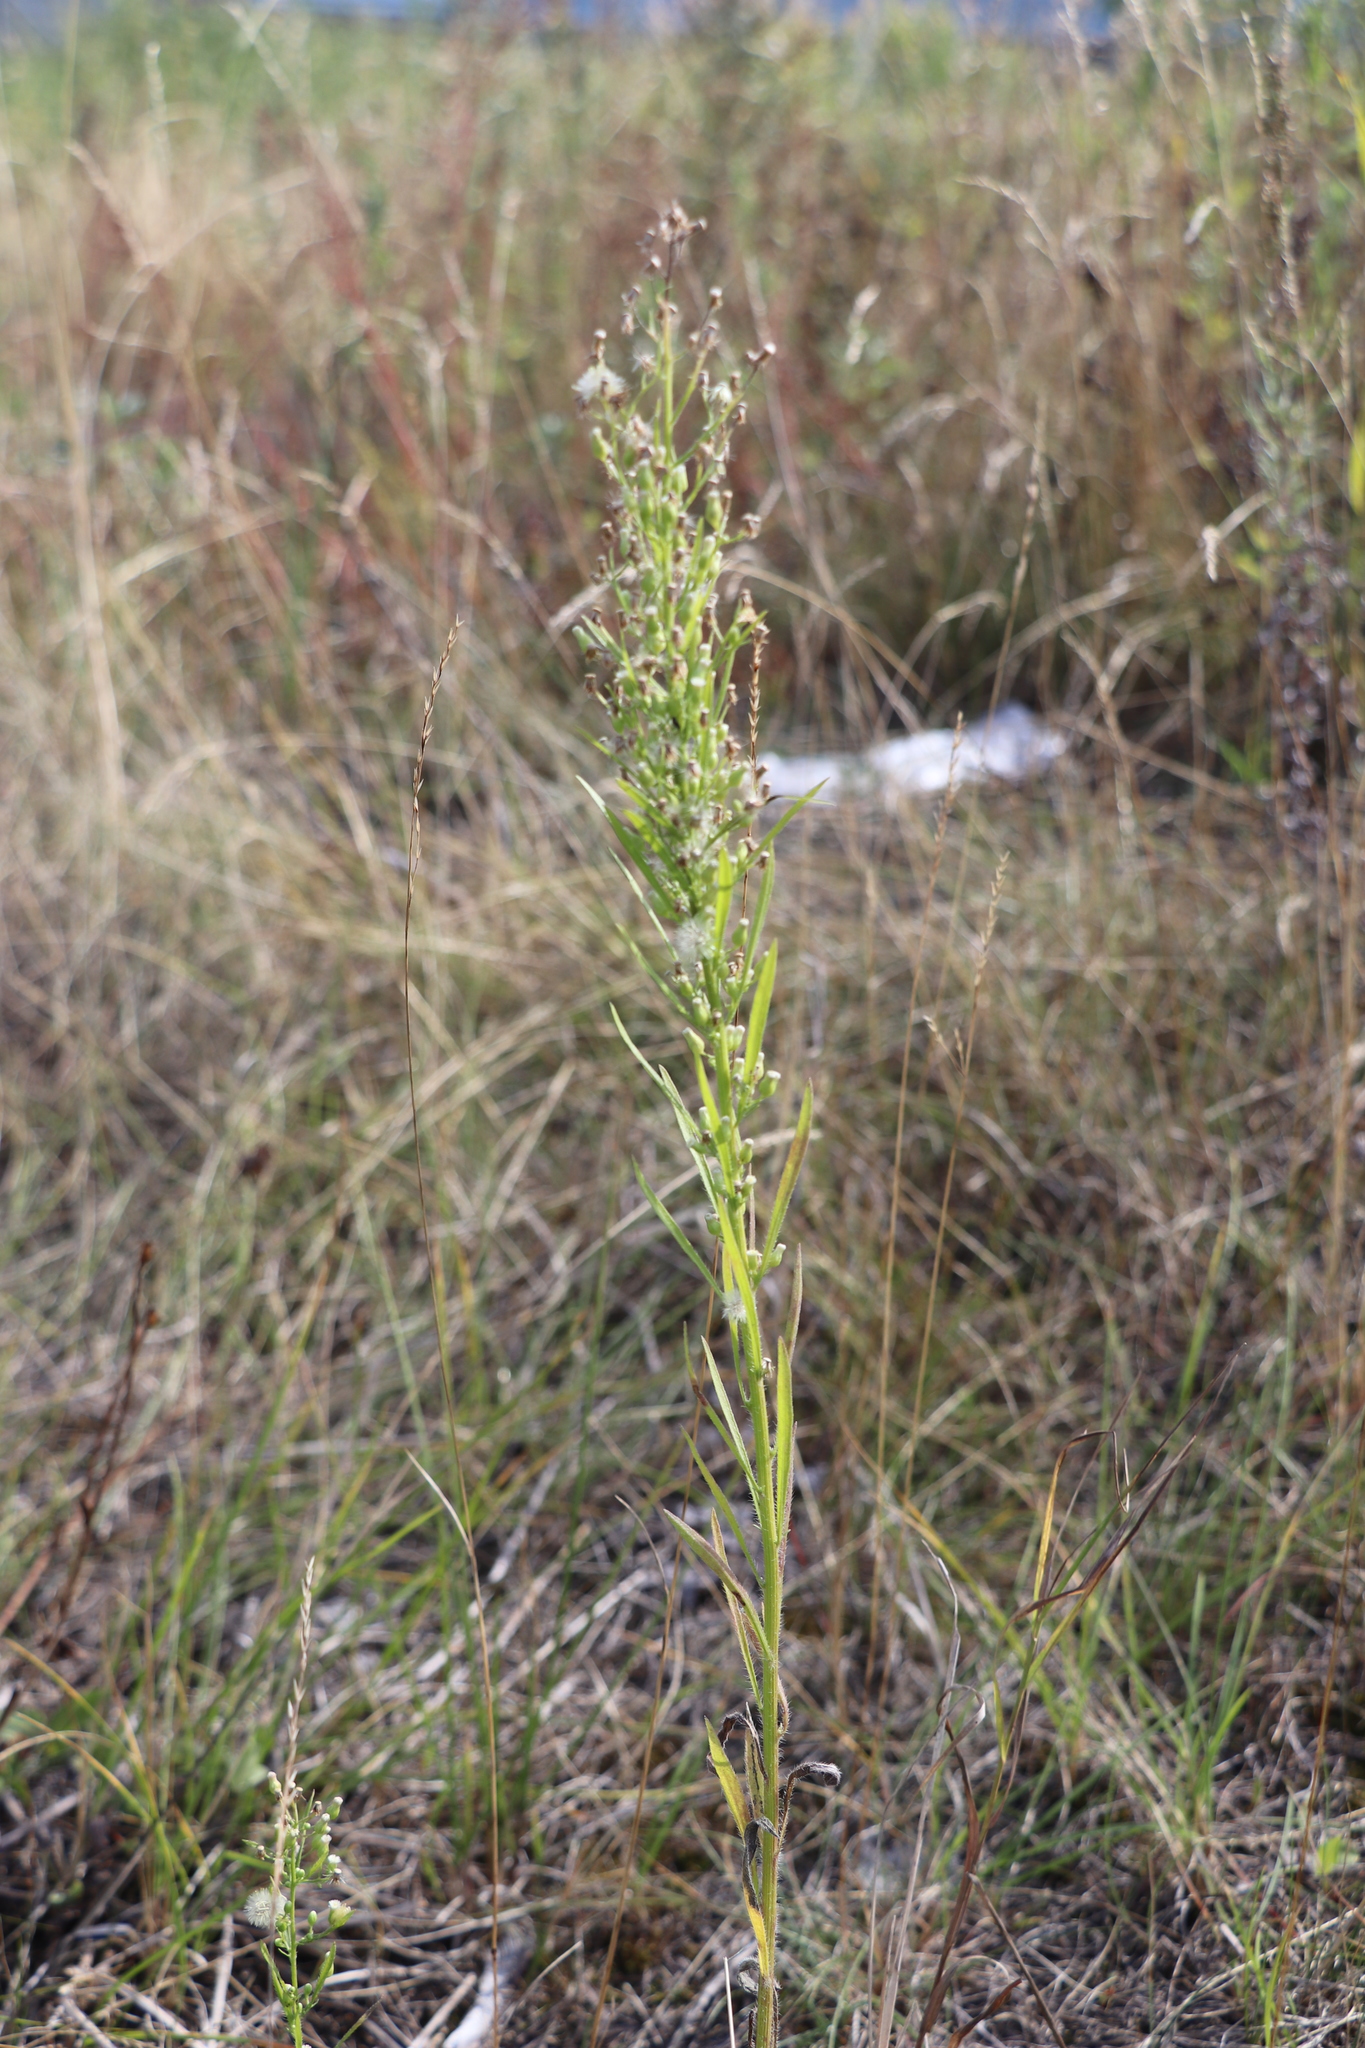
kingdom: Plantae
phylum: Tracheophyta
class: Magnoliopsida
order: Asterales
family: Asteraceae
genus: Erigeron
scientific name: Erigeron canadensis
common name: Canadian fleabane
